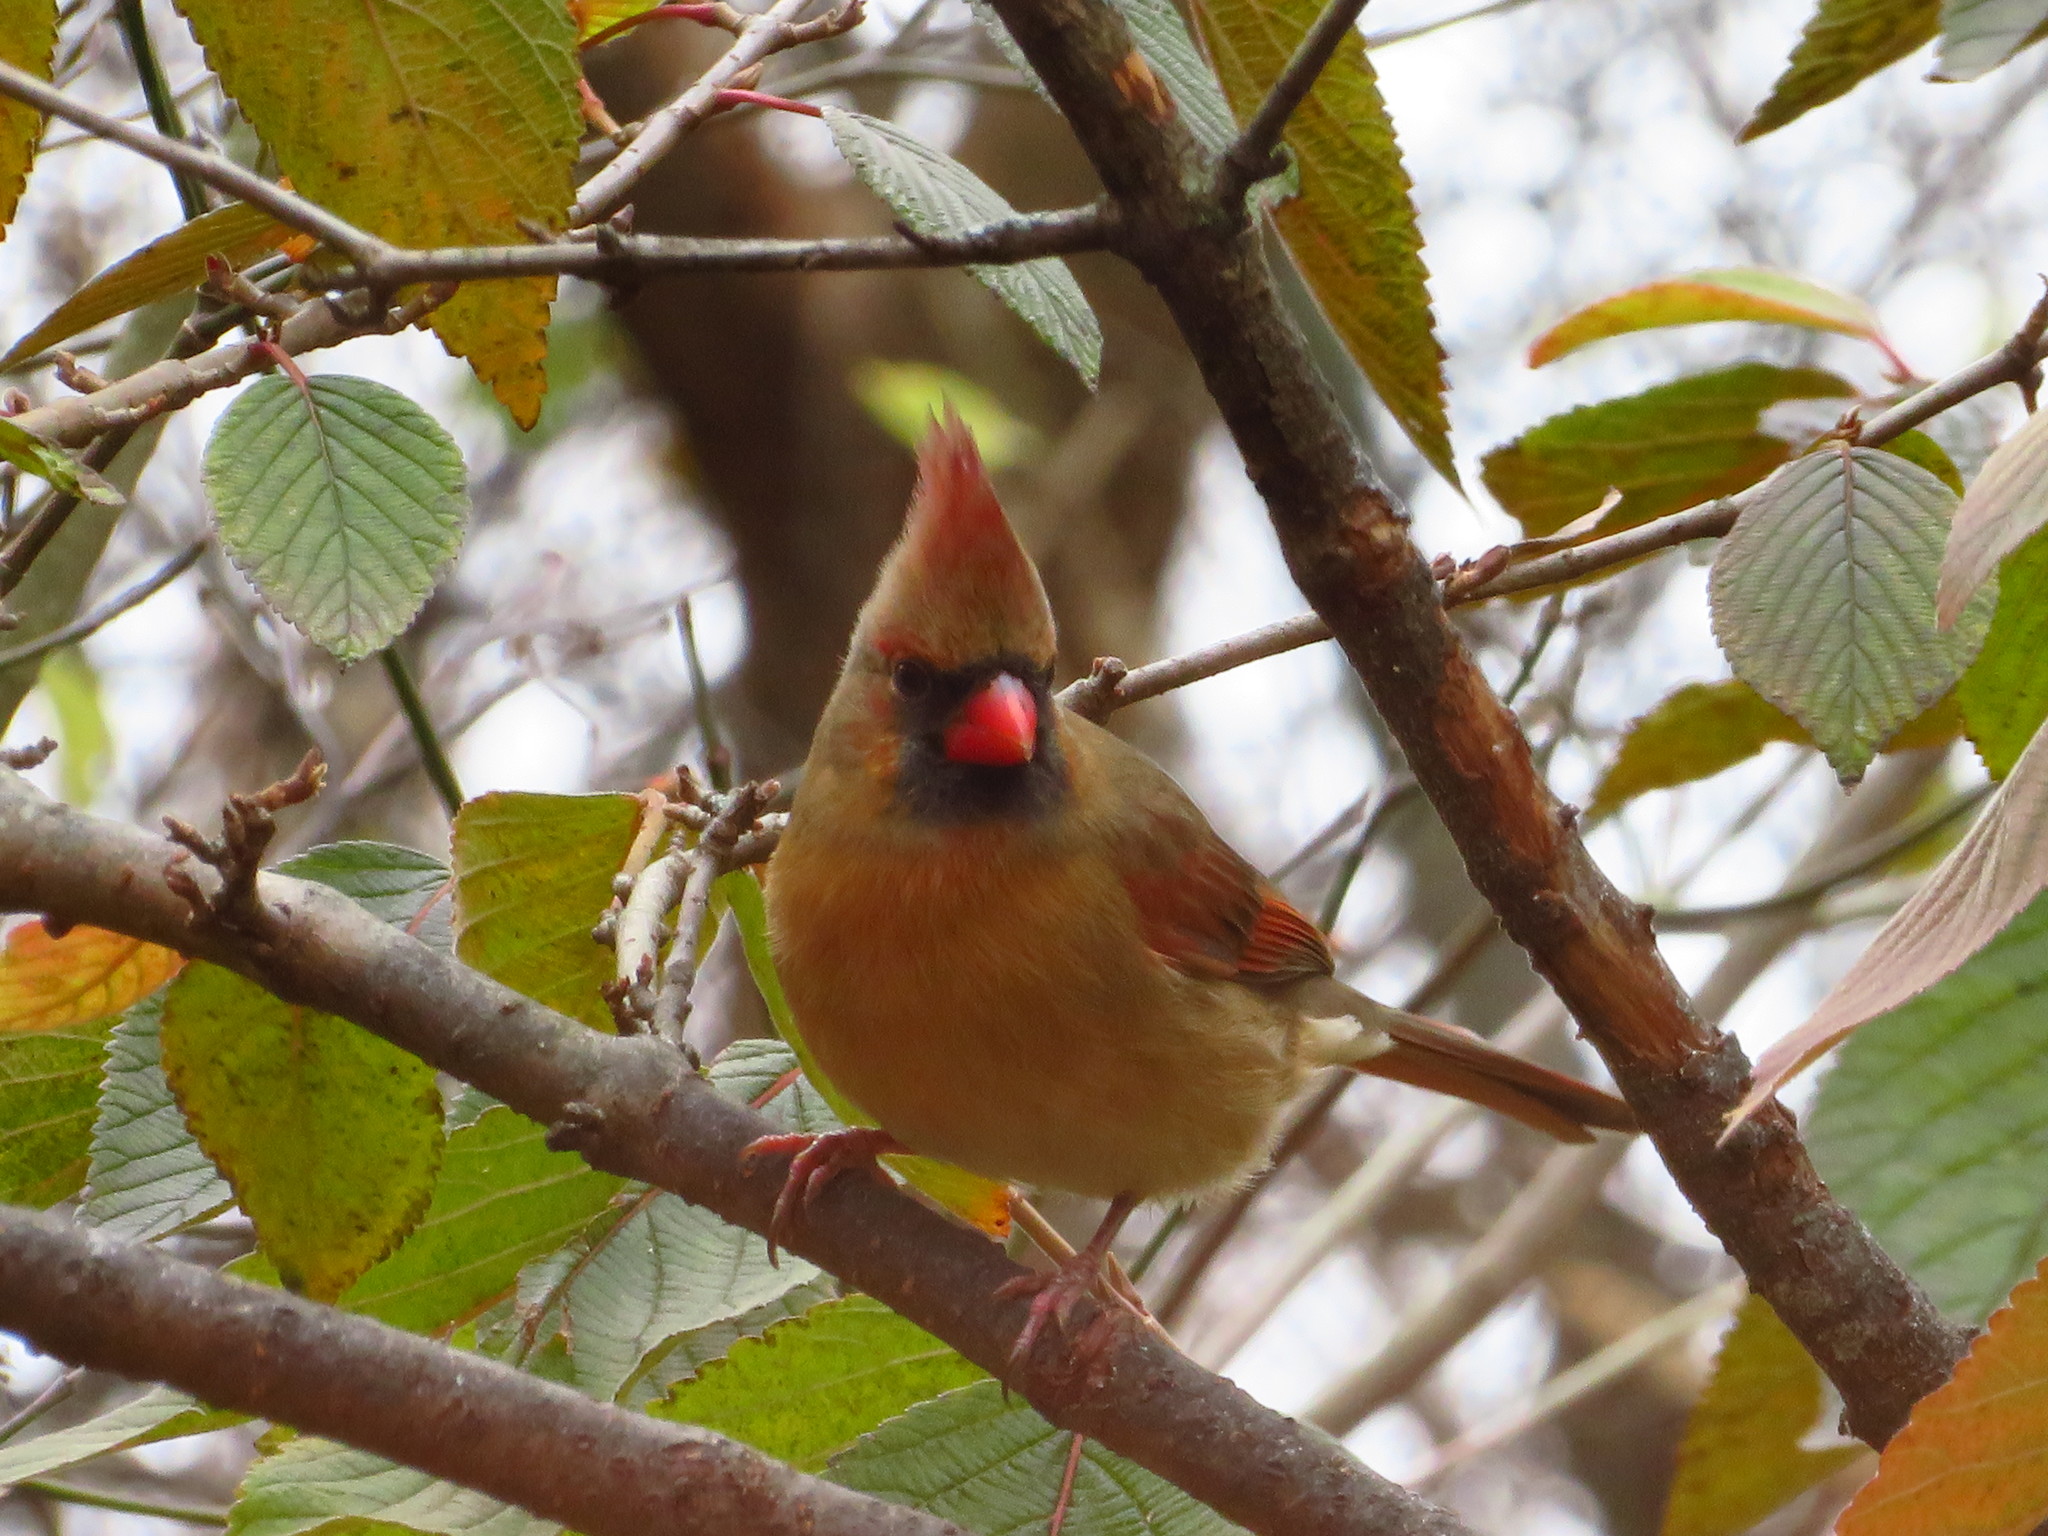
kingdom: Animalia
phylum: Chordata
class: Aves
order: Passeriformes
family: Cardinalidae
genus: Cardinalis
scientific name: Cardinalis cardinalis
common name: Northern cardinal
